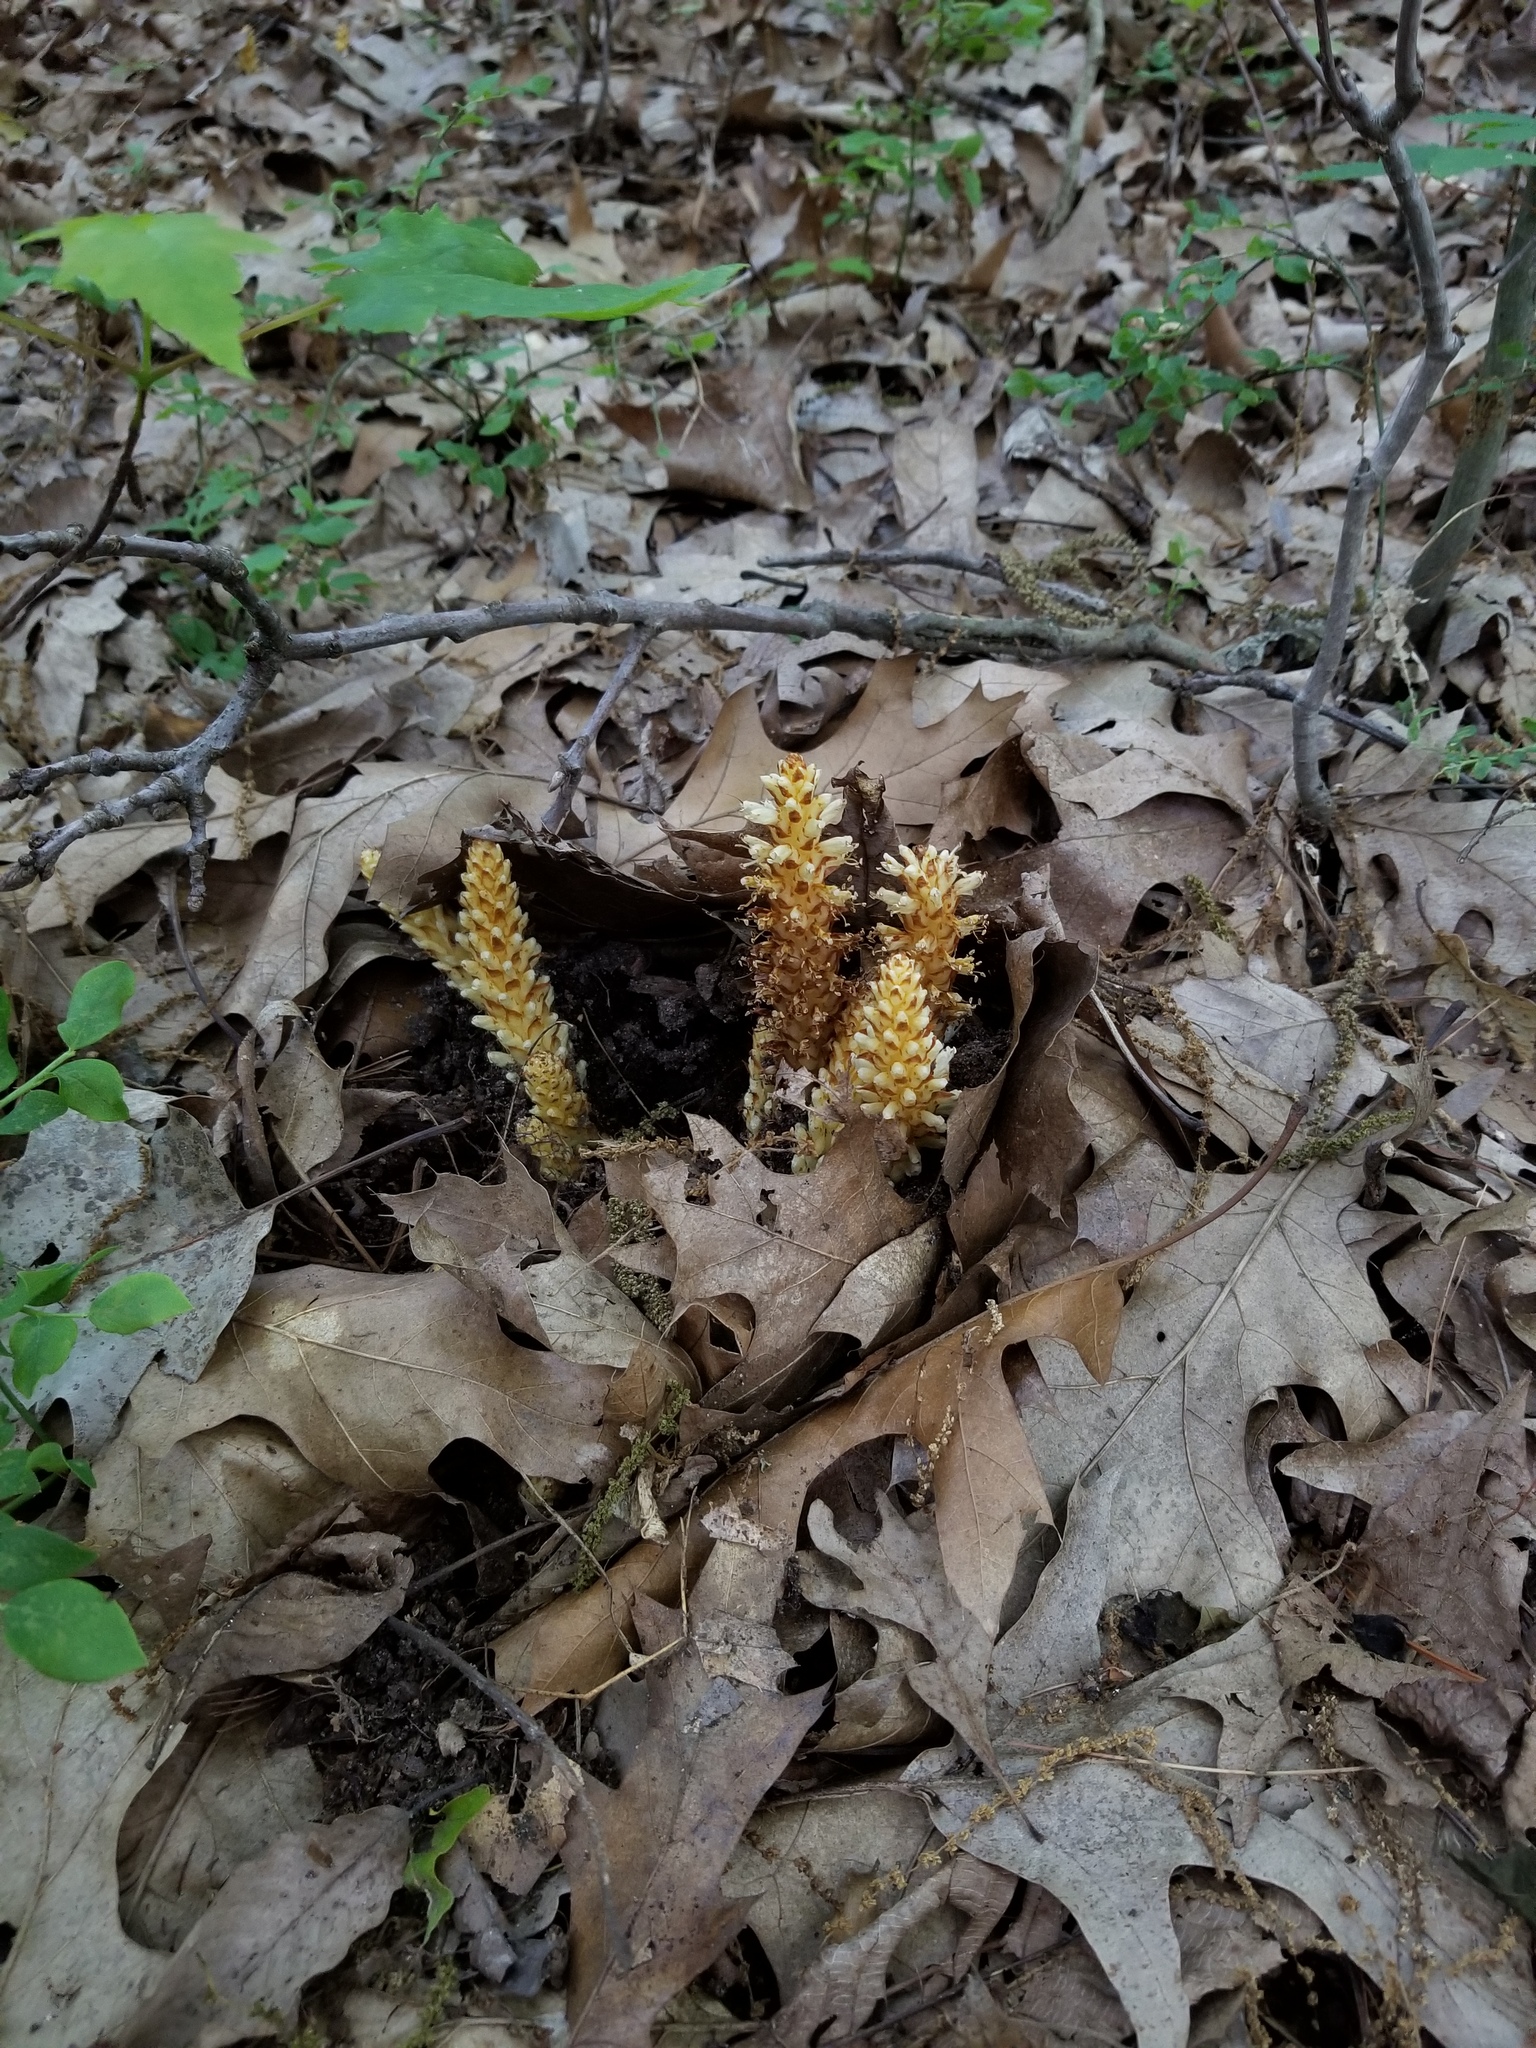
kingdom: Plantae
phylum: Tracheophyta
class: Magnoliopsida
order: Lamiales
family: Orobanchaceae
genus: Conopholis
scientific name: Conopholis americana
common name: American cancer-root
